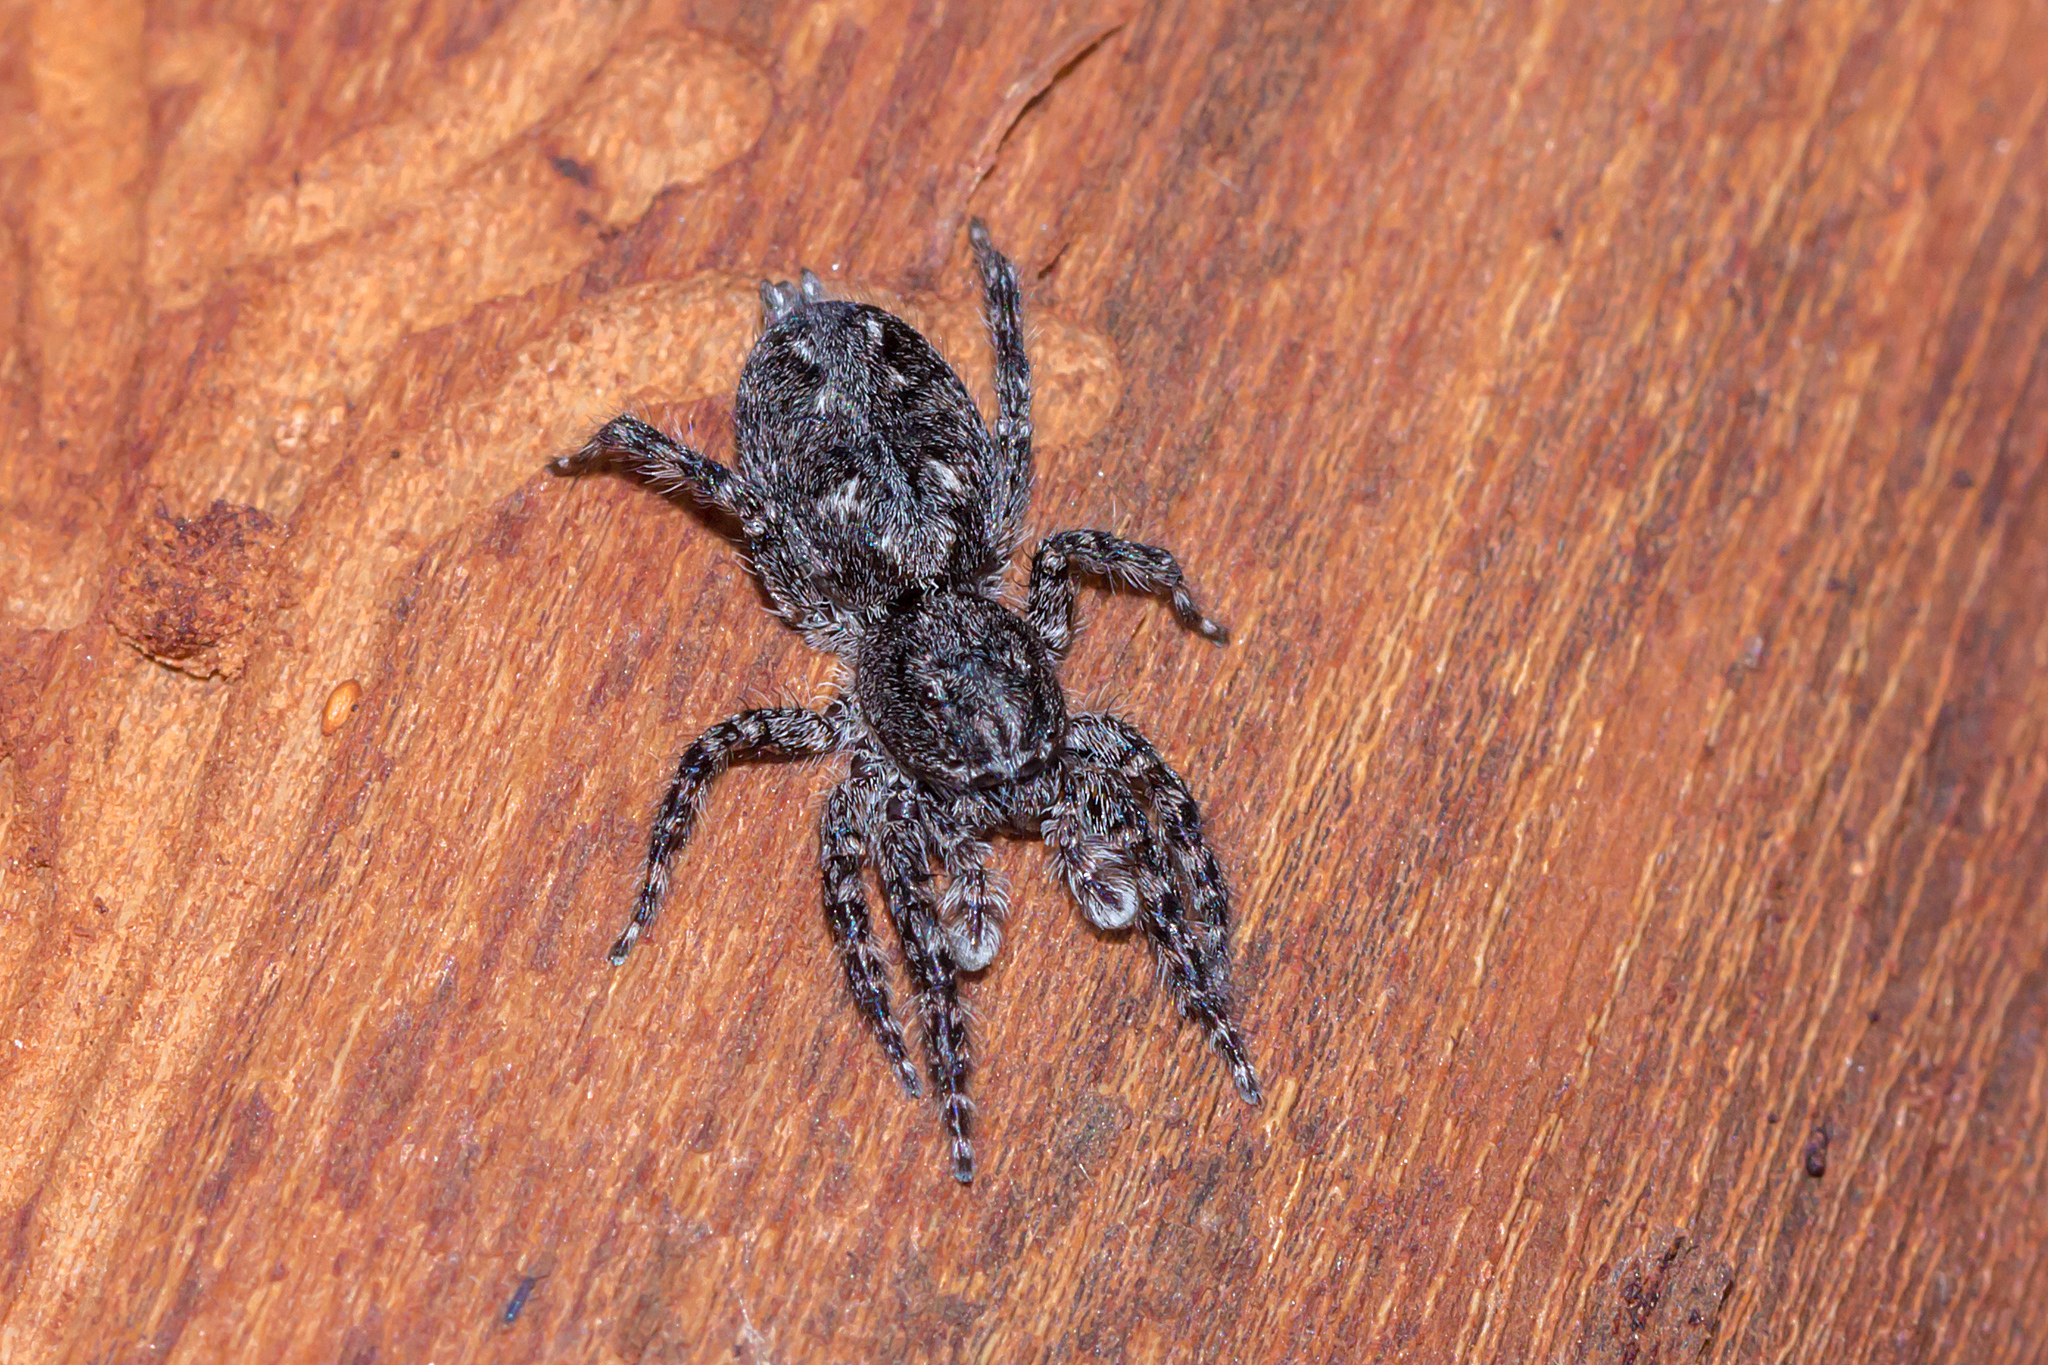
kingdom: Animalia
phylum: Arthropoda
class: Arachnida
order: Araneae
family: Salticidae
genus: Clynotis
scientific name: Clynotis severus
